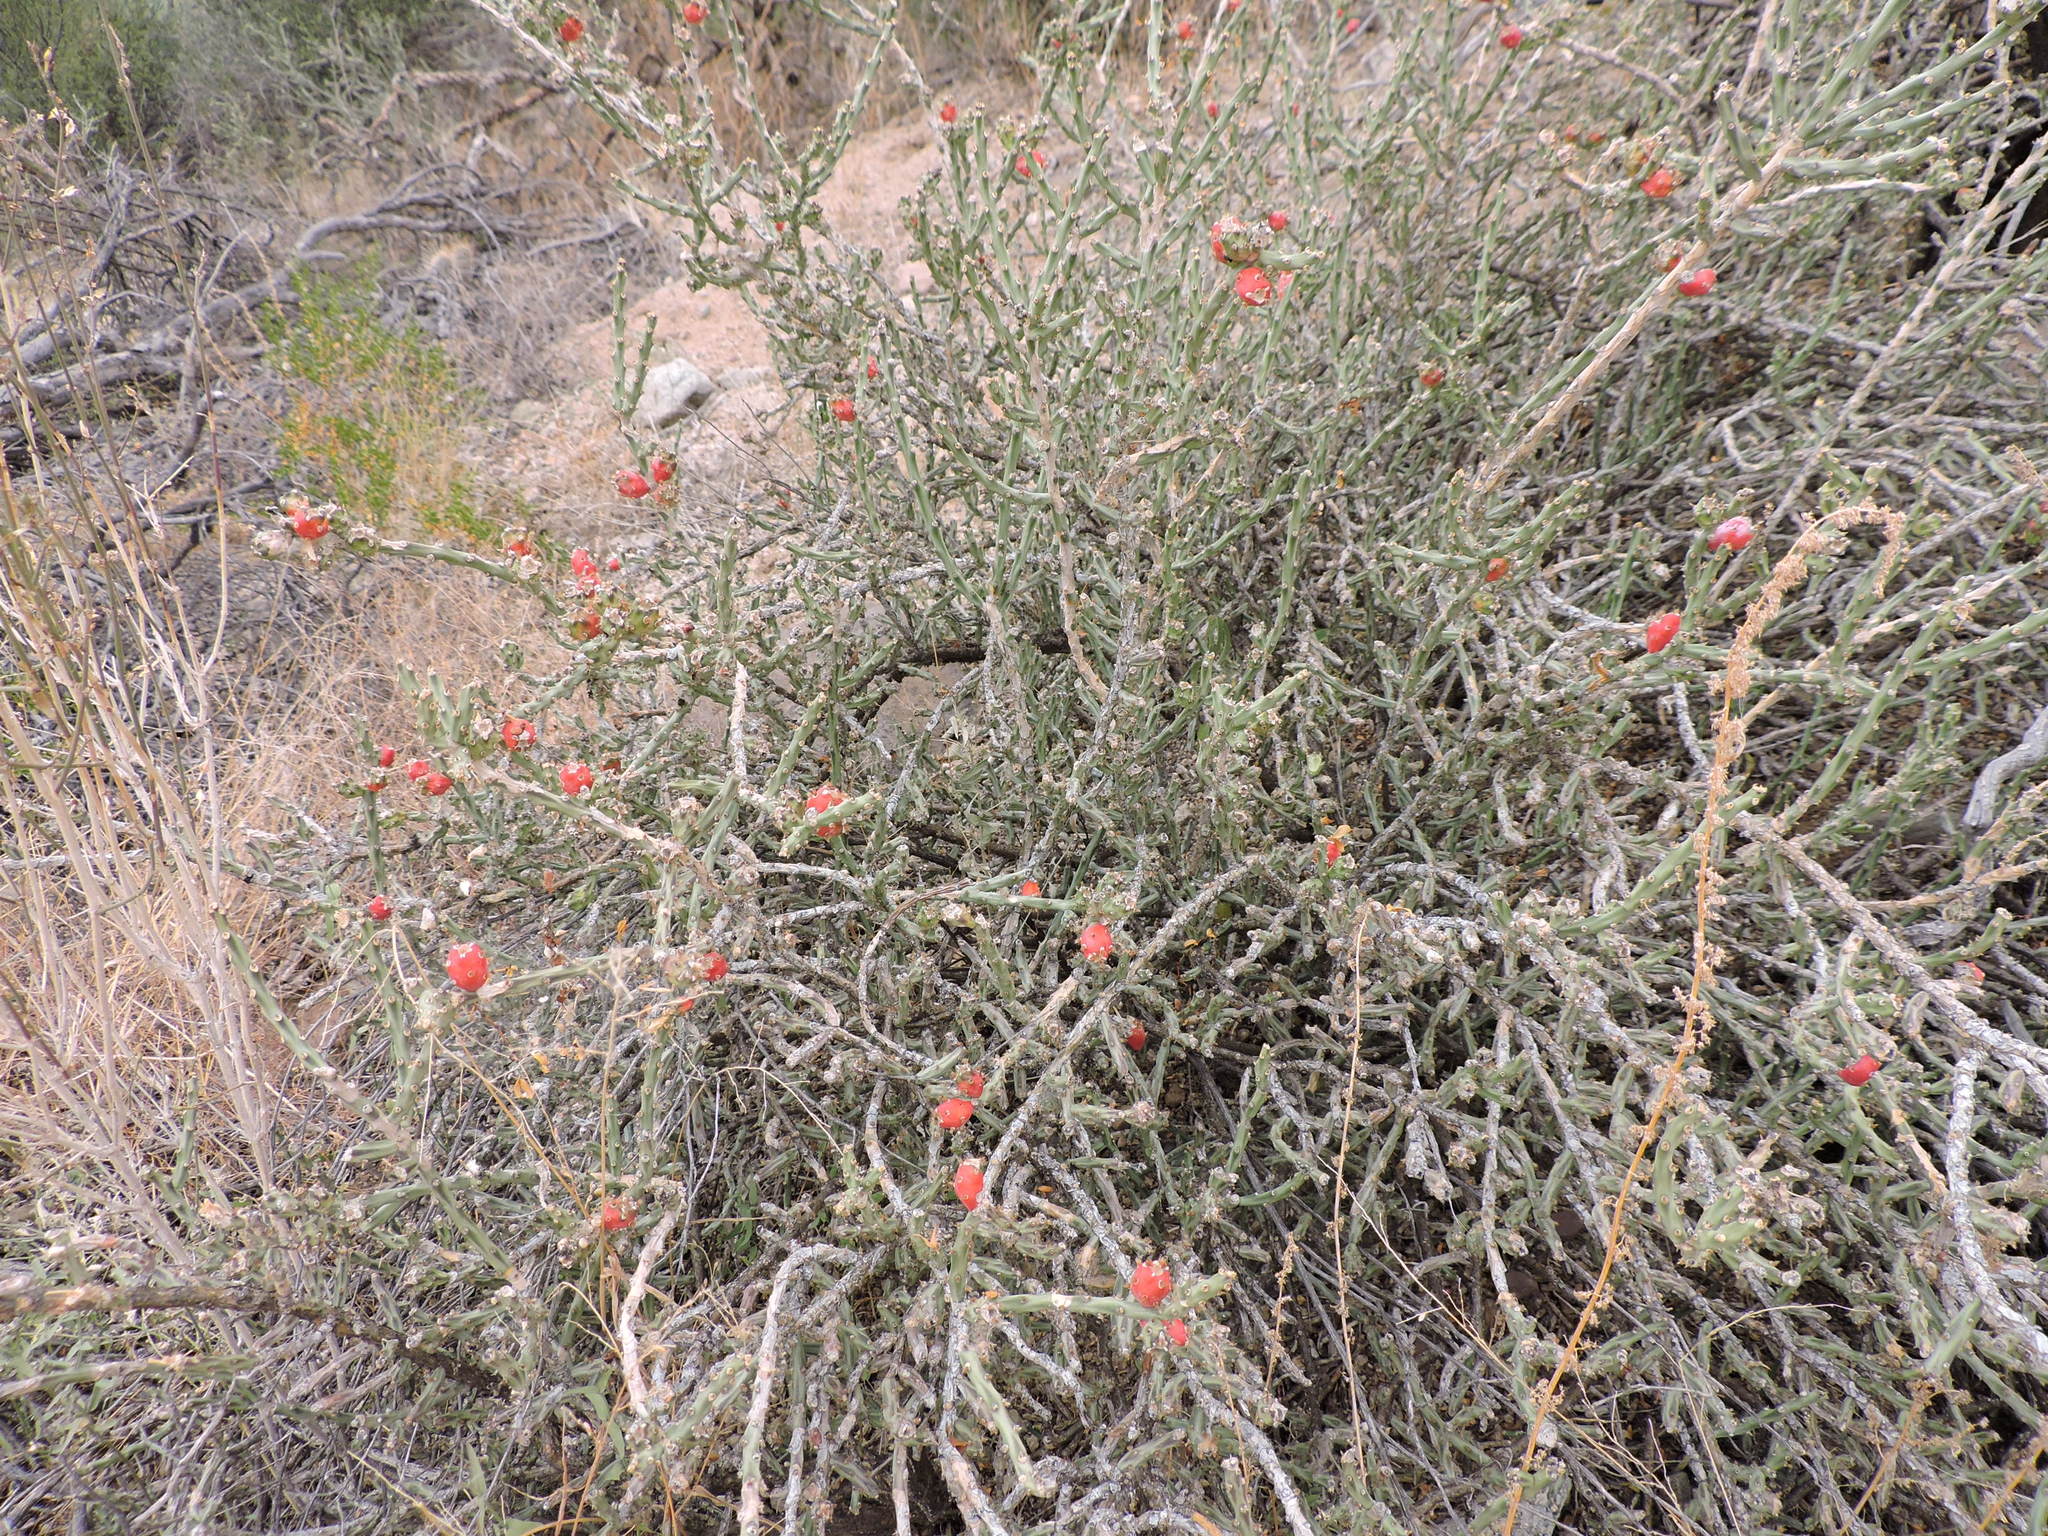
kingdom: Plantae
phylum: Tracheophyta
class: Magnoliopsida
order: Caryophyllales
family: Cactaceae
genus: Cylindropuntia
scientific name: Cylindropuntia leptocaulis
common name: Christmas cactus
